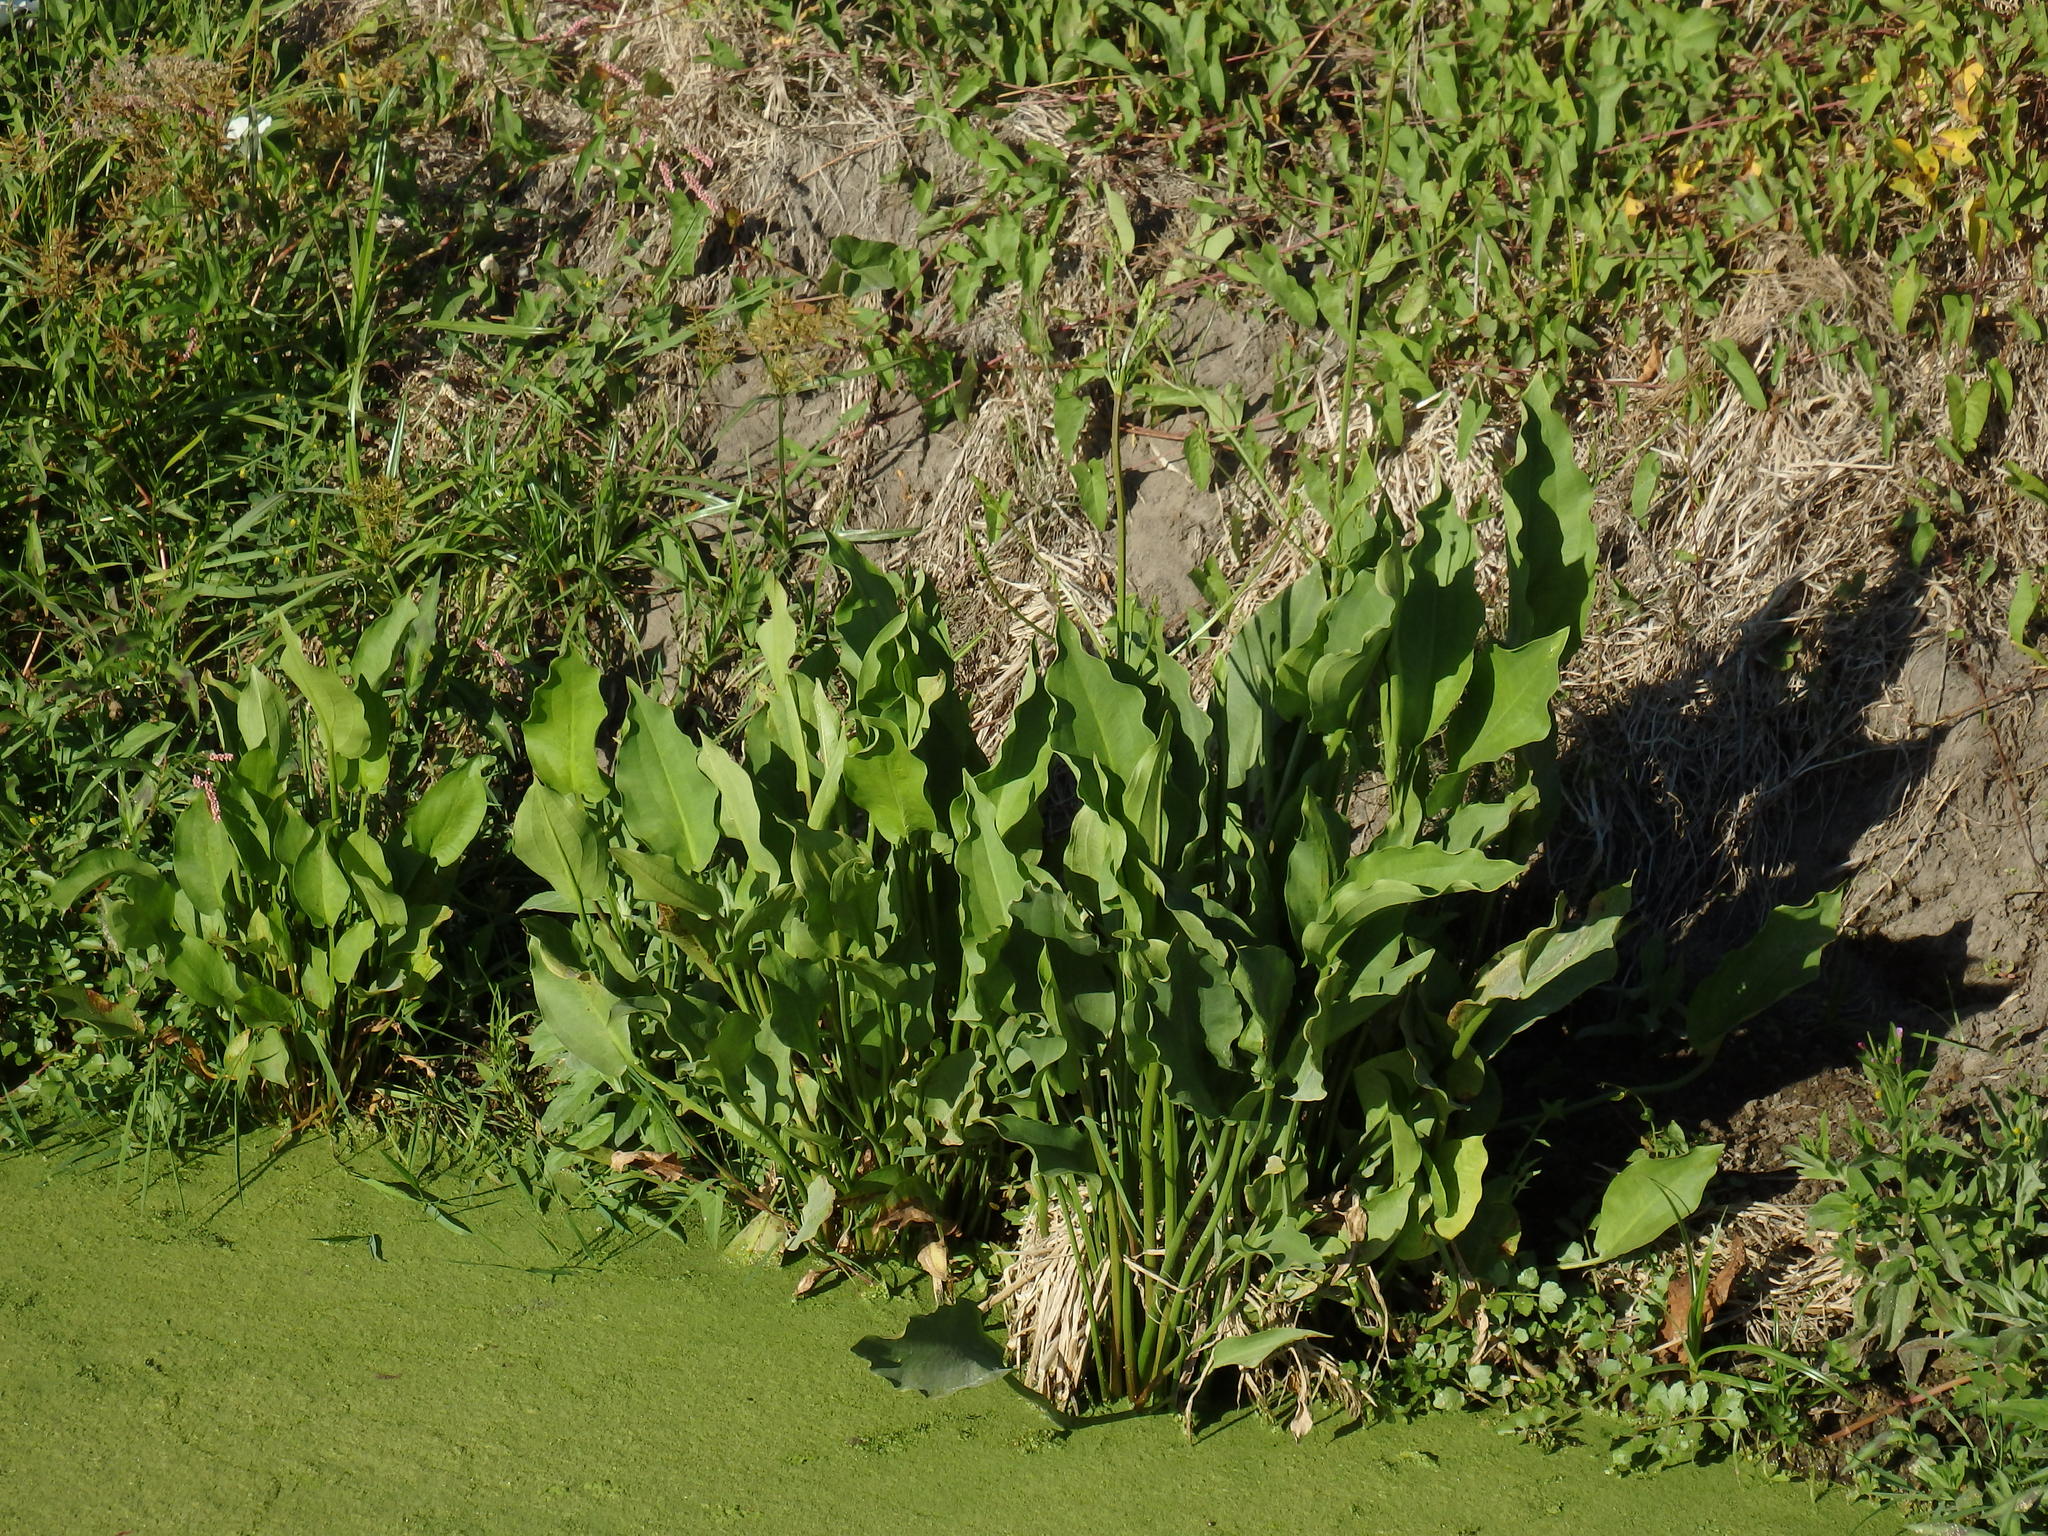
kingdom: Plantae
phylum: Tracheophyta
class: Liliopsida
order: Alismatales
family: Alismataceae
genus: Alisma
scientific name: Alisma plantago-aquatica
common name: Water-plantain
